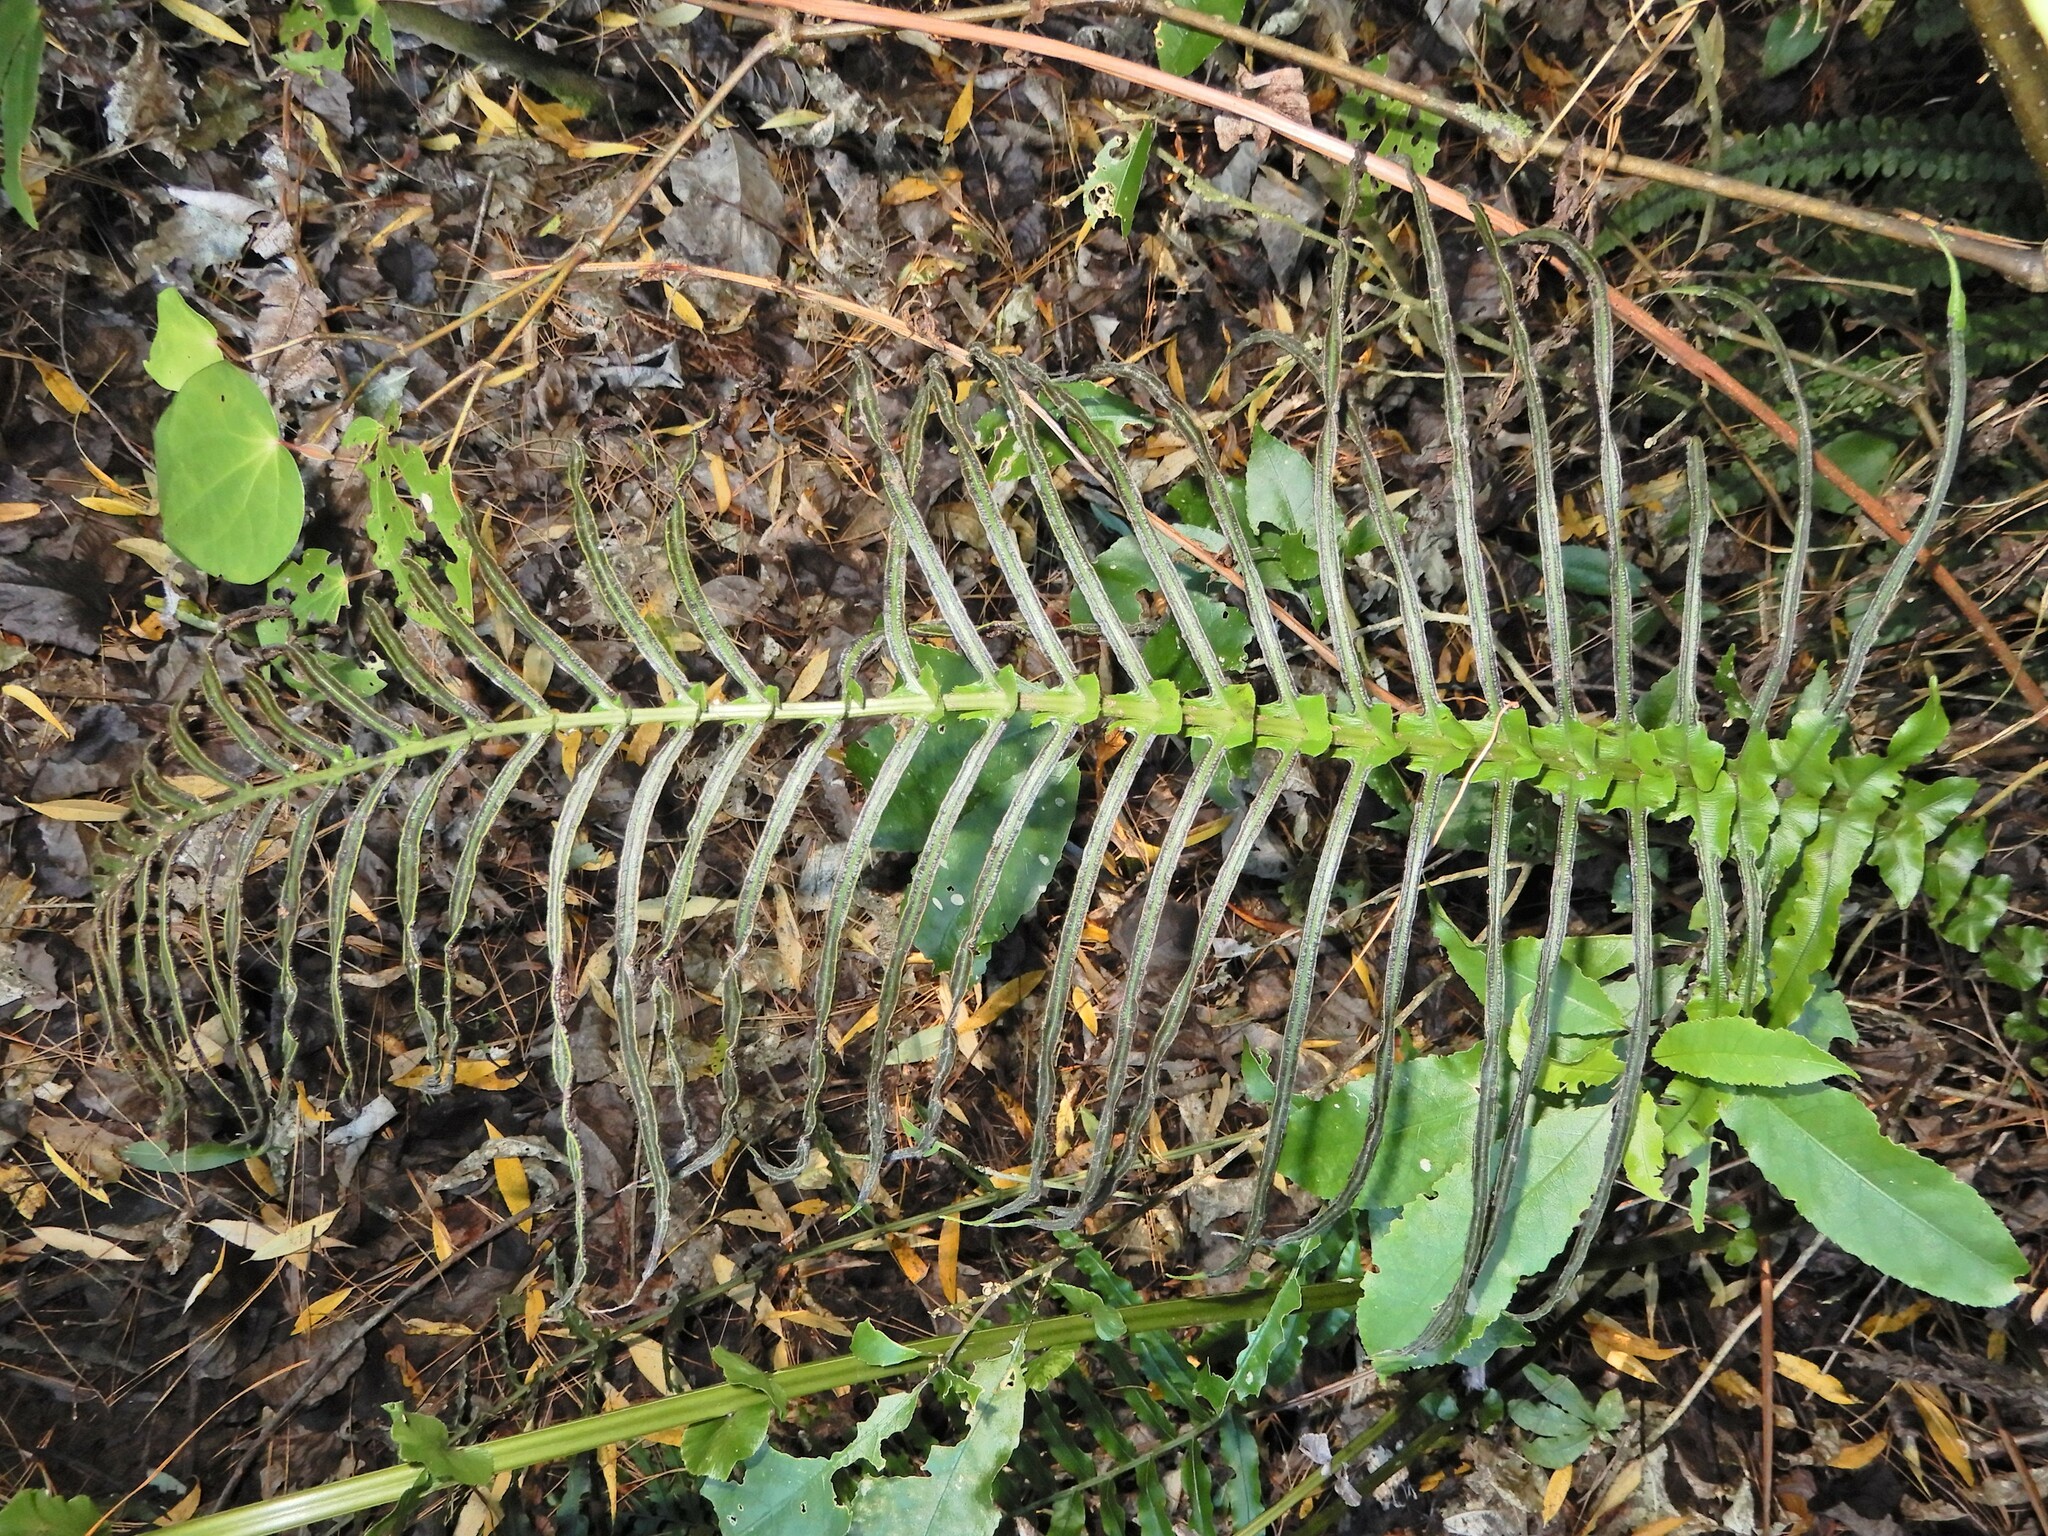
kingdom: Plantae
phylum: Tracheophyta
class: Polypodiopsida
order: Polypodiales
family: Blechnaceae
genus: Parablechnum
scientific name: Parablechnum novae-zelandiae
